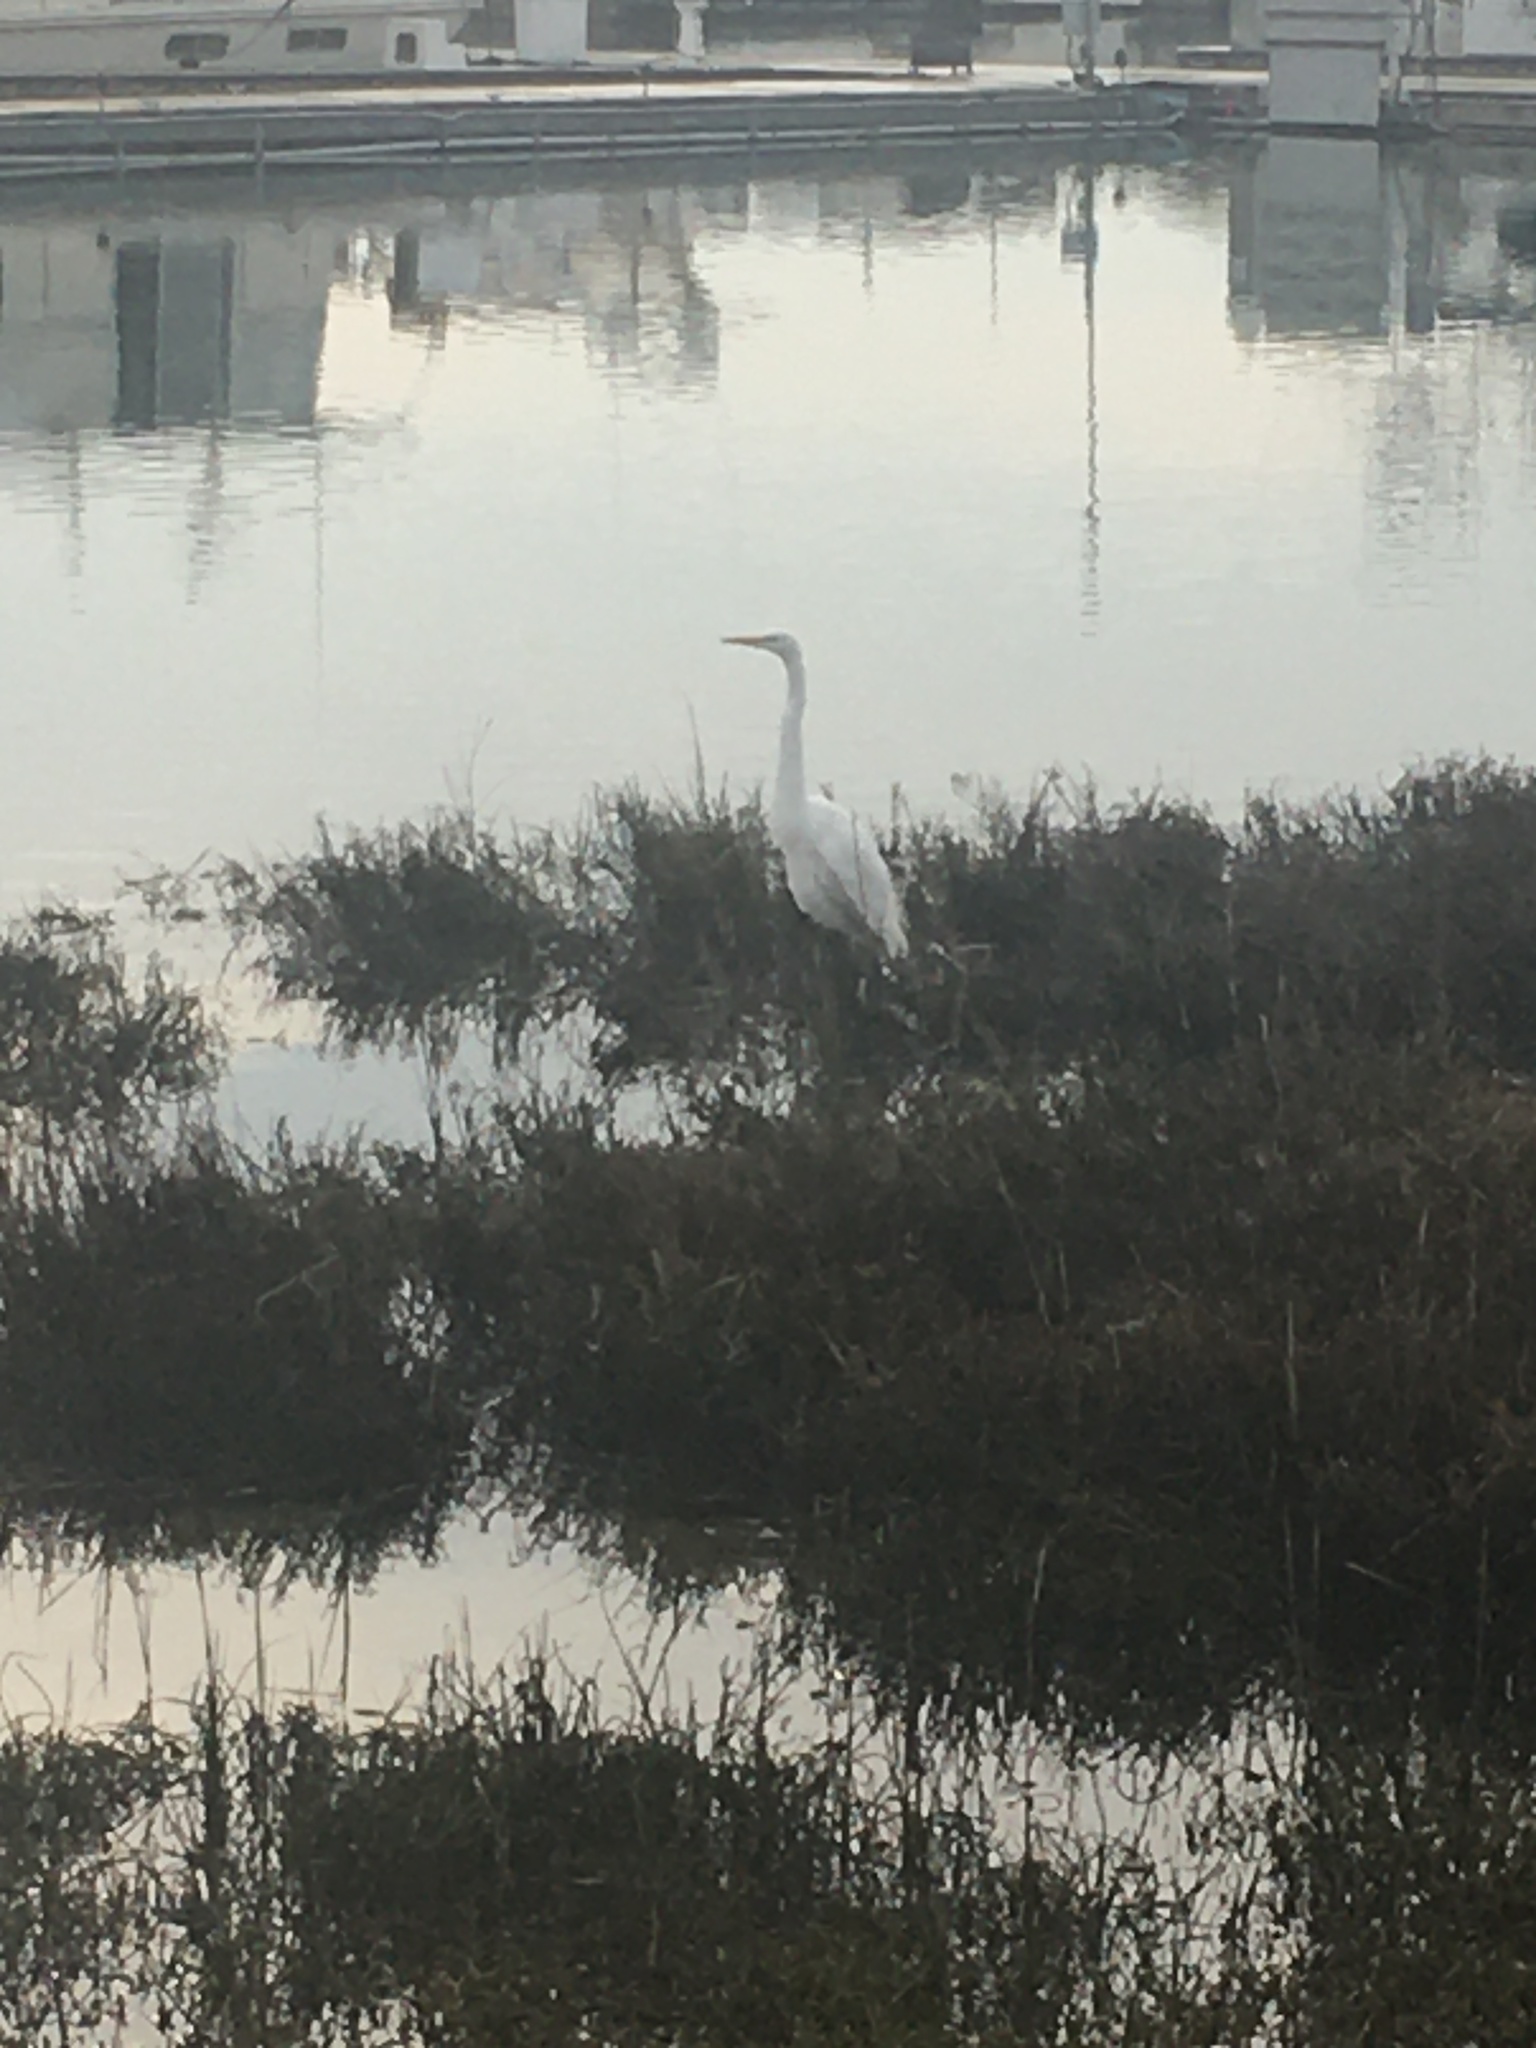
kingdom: Animalia
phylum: Chordata
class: Aves
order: Pelecaniformes
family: Ardeidae
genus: Ardea
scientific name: Ardea alba
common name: Great egret
